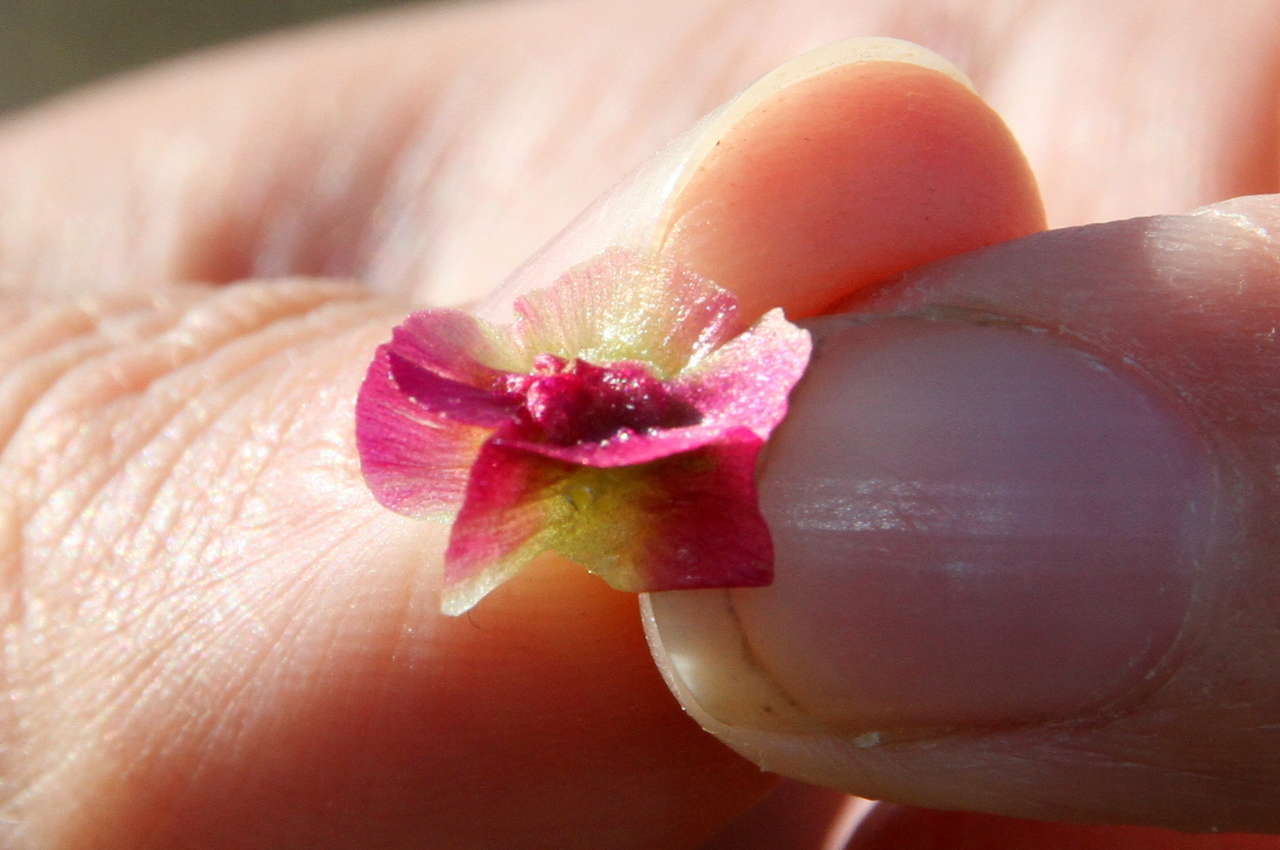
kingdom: Plantae
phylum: Tracheophyta
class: Magnoliopsida
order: Caryophyllales
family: Amaranthaceae
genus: Maireana
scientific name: Maireana erioclada
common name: Rosy bluebush
